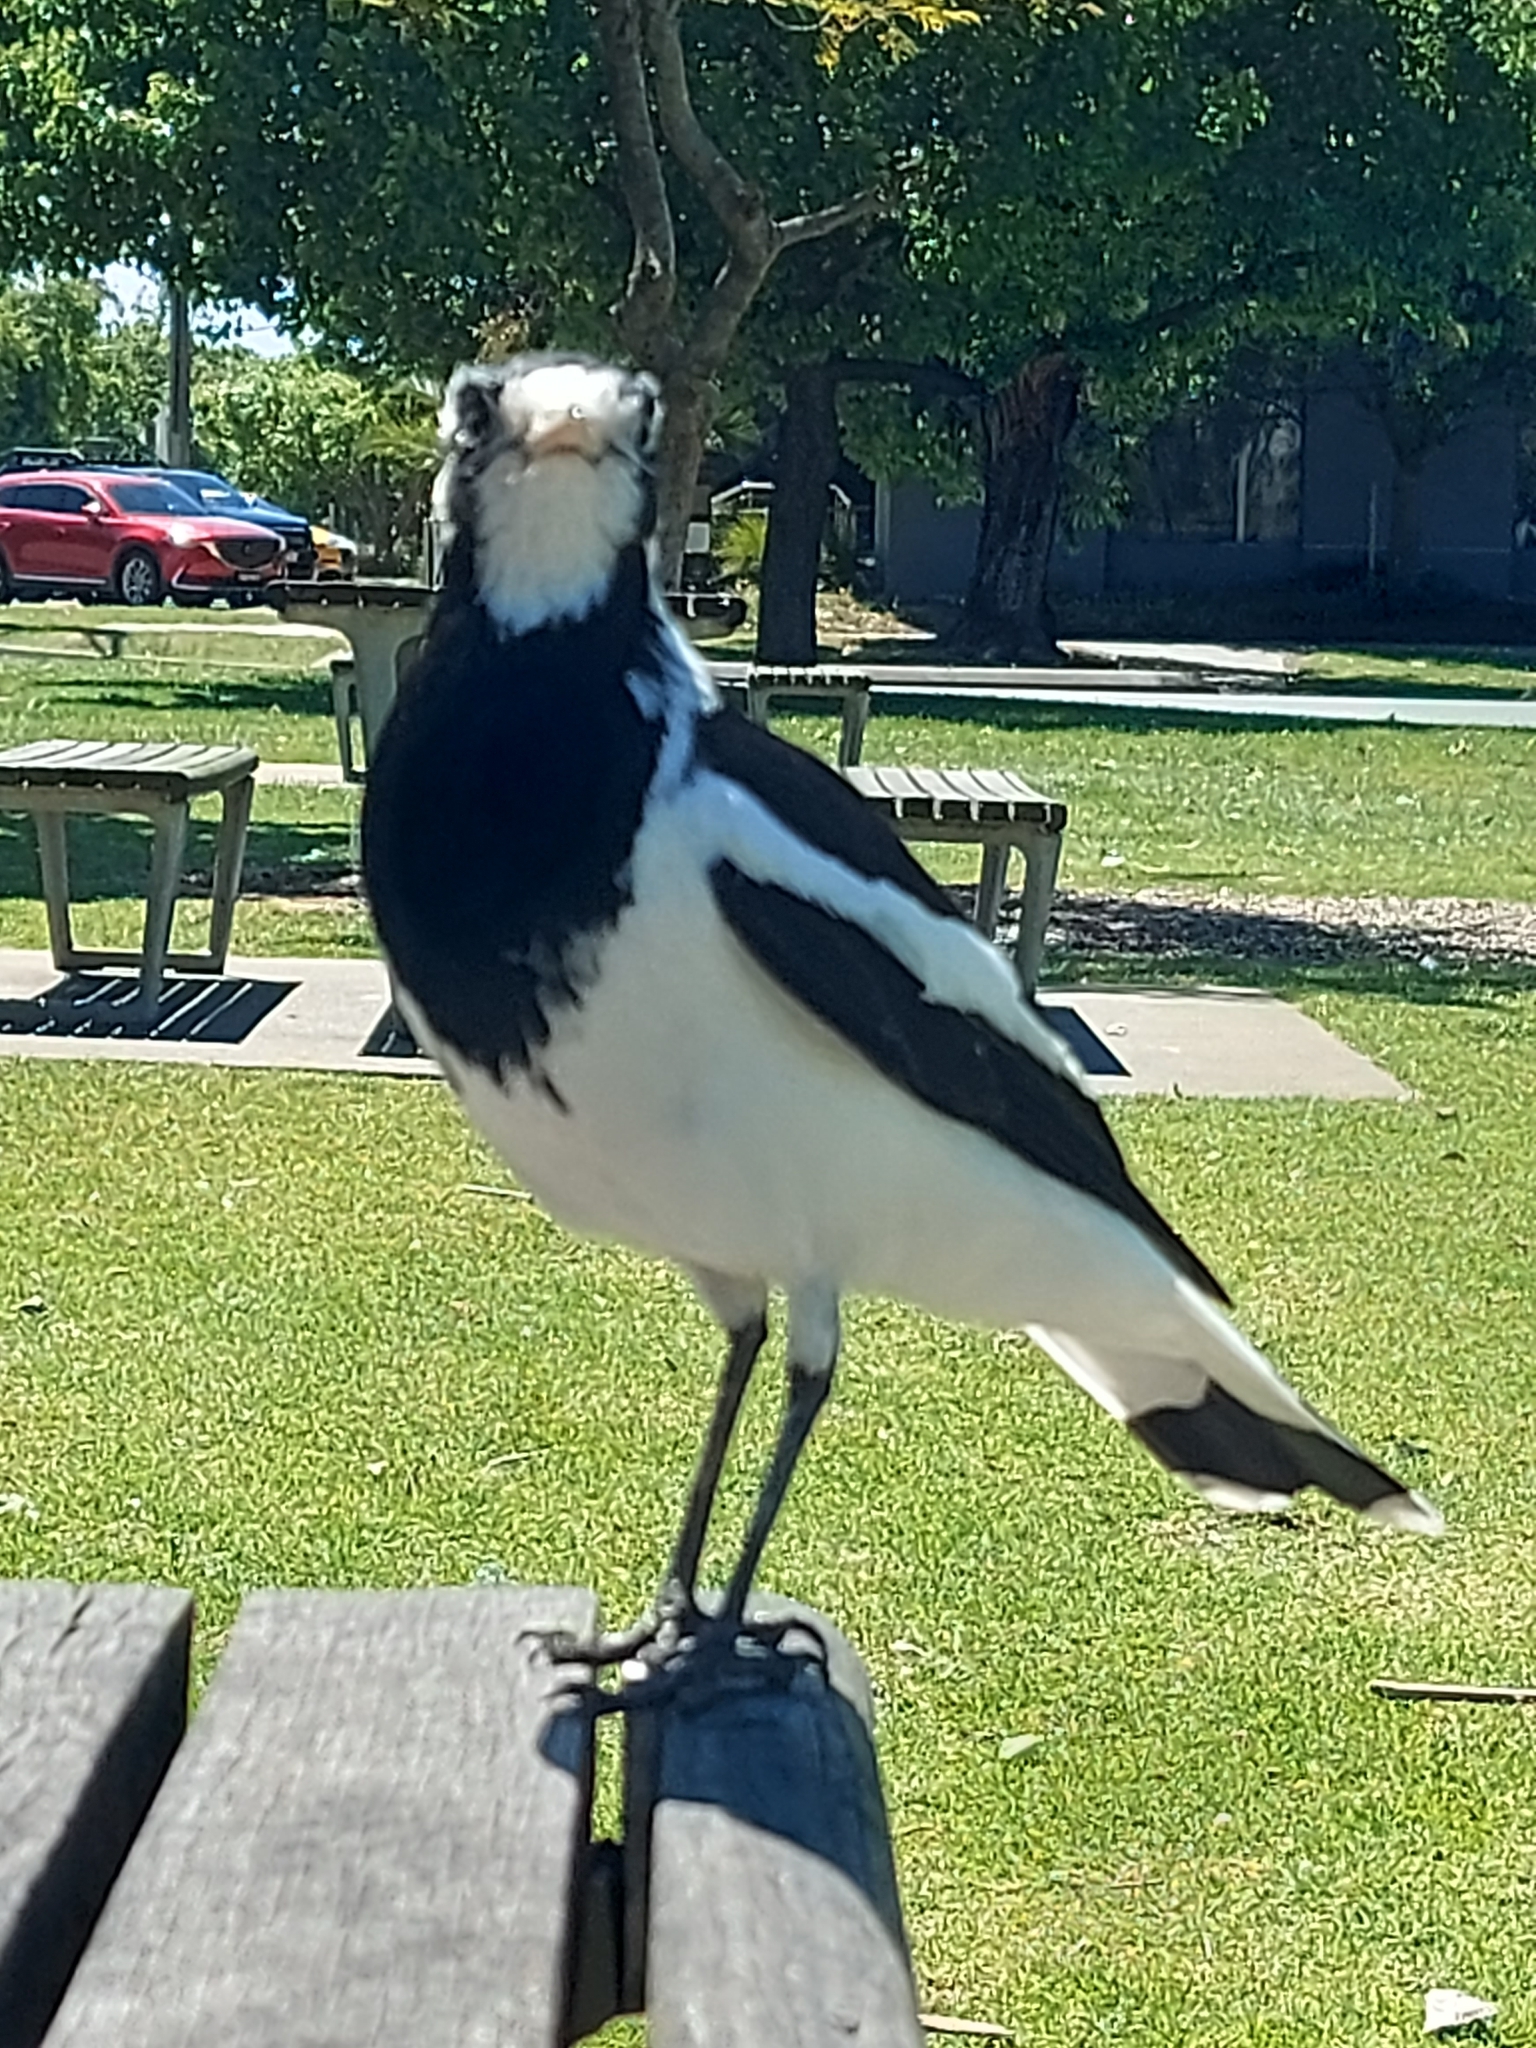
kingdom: Animalia
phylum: Chordata
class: Aves
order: Passeriformes
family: Monarchidae
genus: Grallina
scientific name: Grallina cyanoleuca
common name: Magpie-lark
